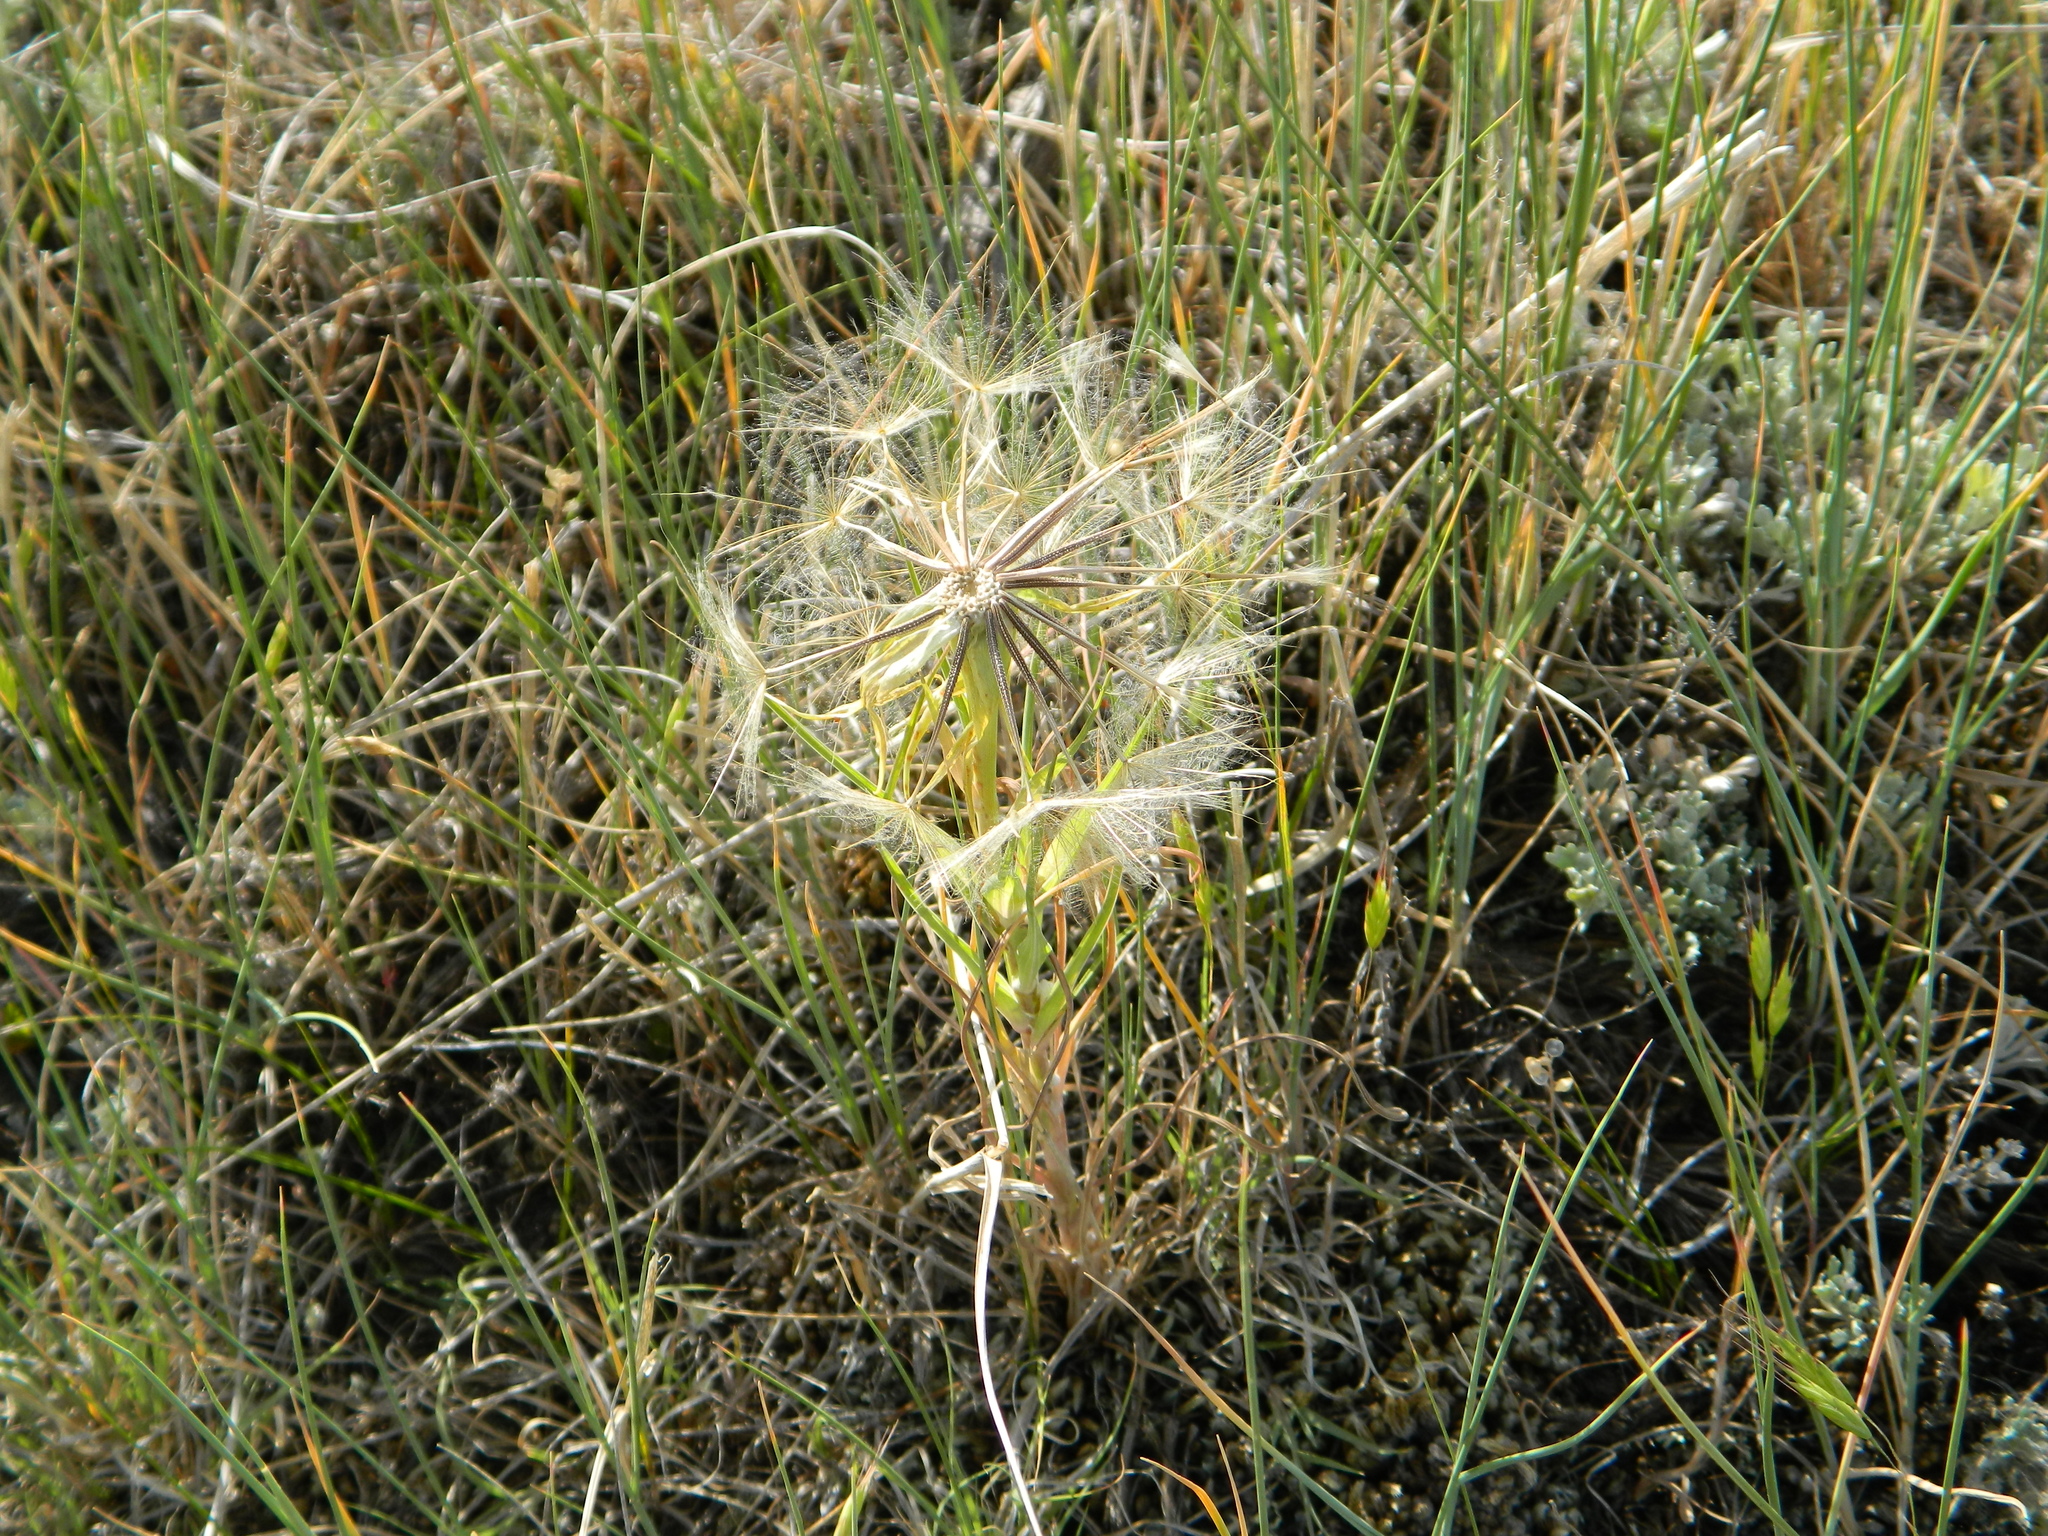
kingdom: Plantae
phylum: Tracheophyta
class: Magnoliopsida
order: Asterales
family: Asteraceae
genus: Tragopogon
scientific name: Tragopogon dubius
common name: Yellow salsify
